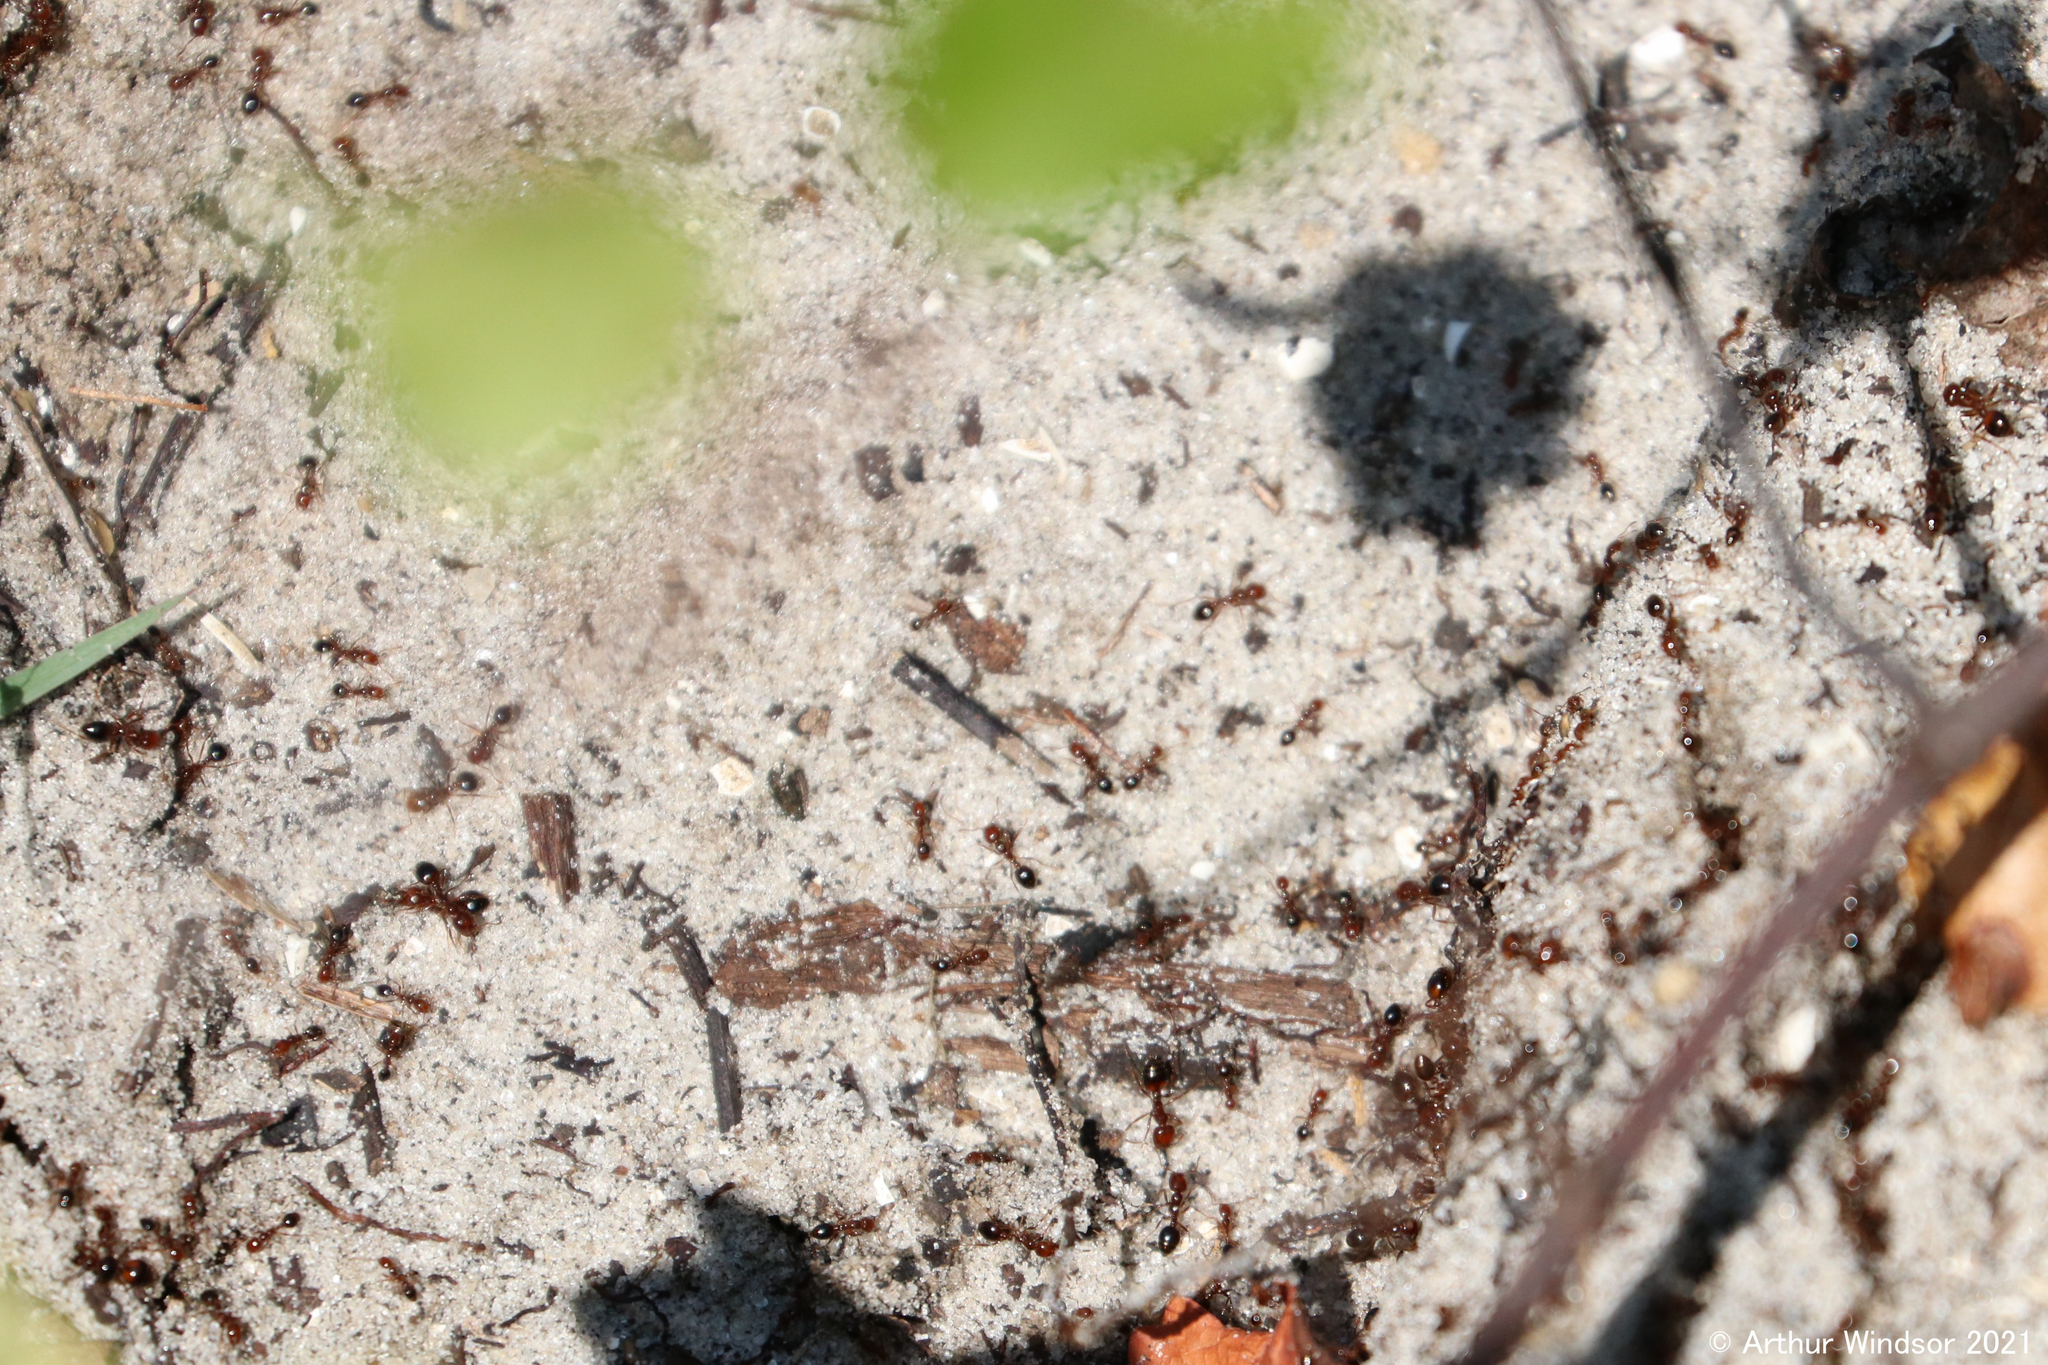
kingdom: Animalia
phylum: Arthropoda
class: Insecta
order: Hymenoptera
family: Formicidae
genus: Solenopsis
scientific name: Solenopsis invicta
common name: Red imported fire ant
